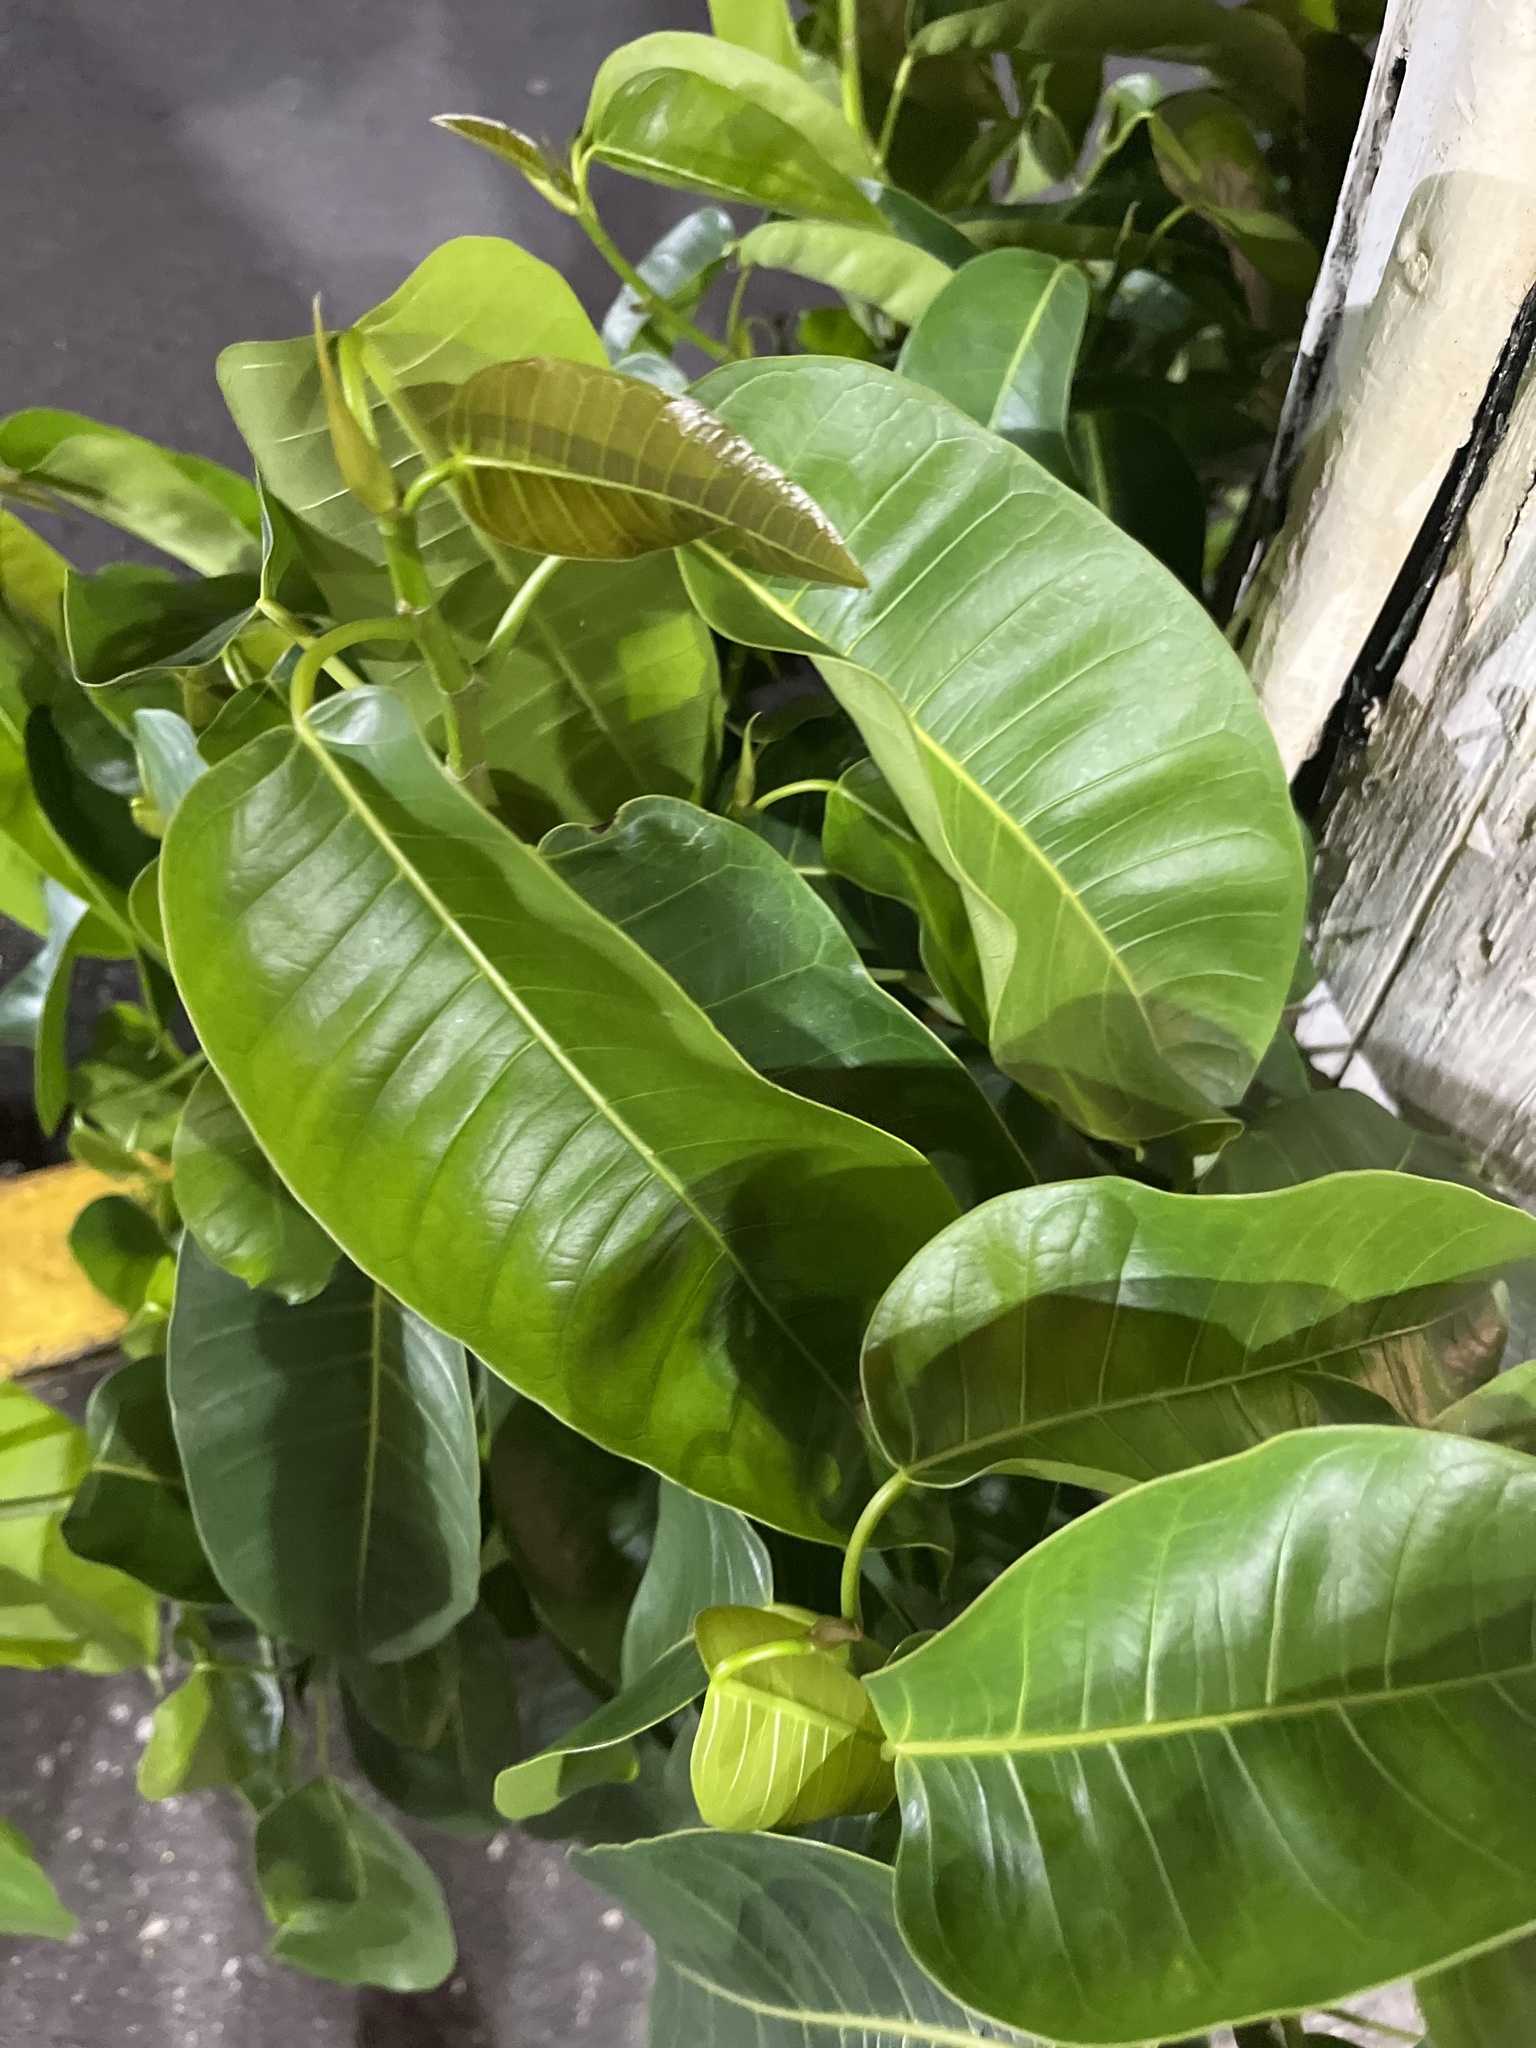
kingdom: Plantae
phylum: Tracheophyta
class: Magnoliopsida
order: Rosales
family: Moraceae
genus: Ficus
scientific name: Ficus citrifolia
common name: Strangler fig
